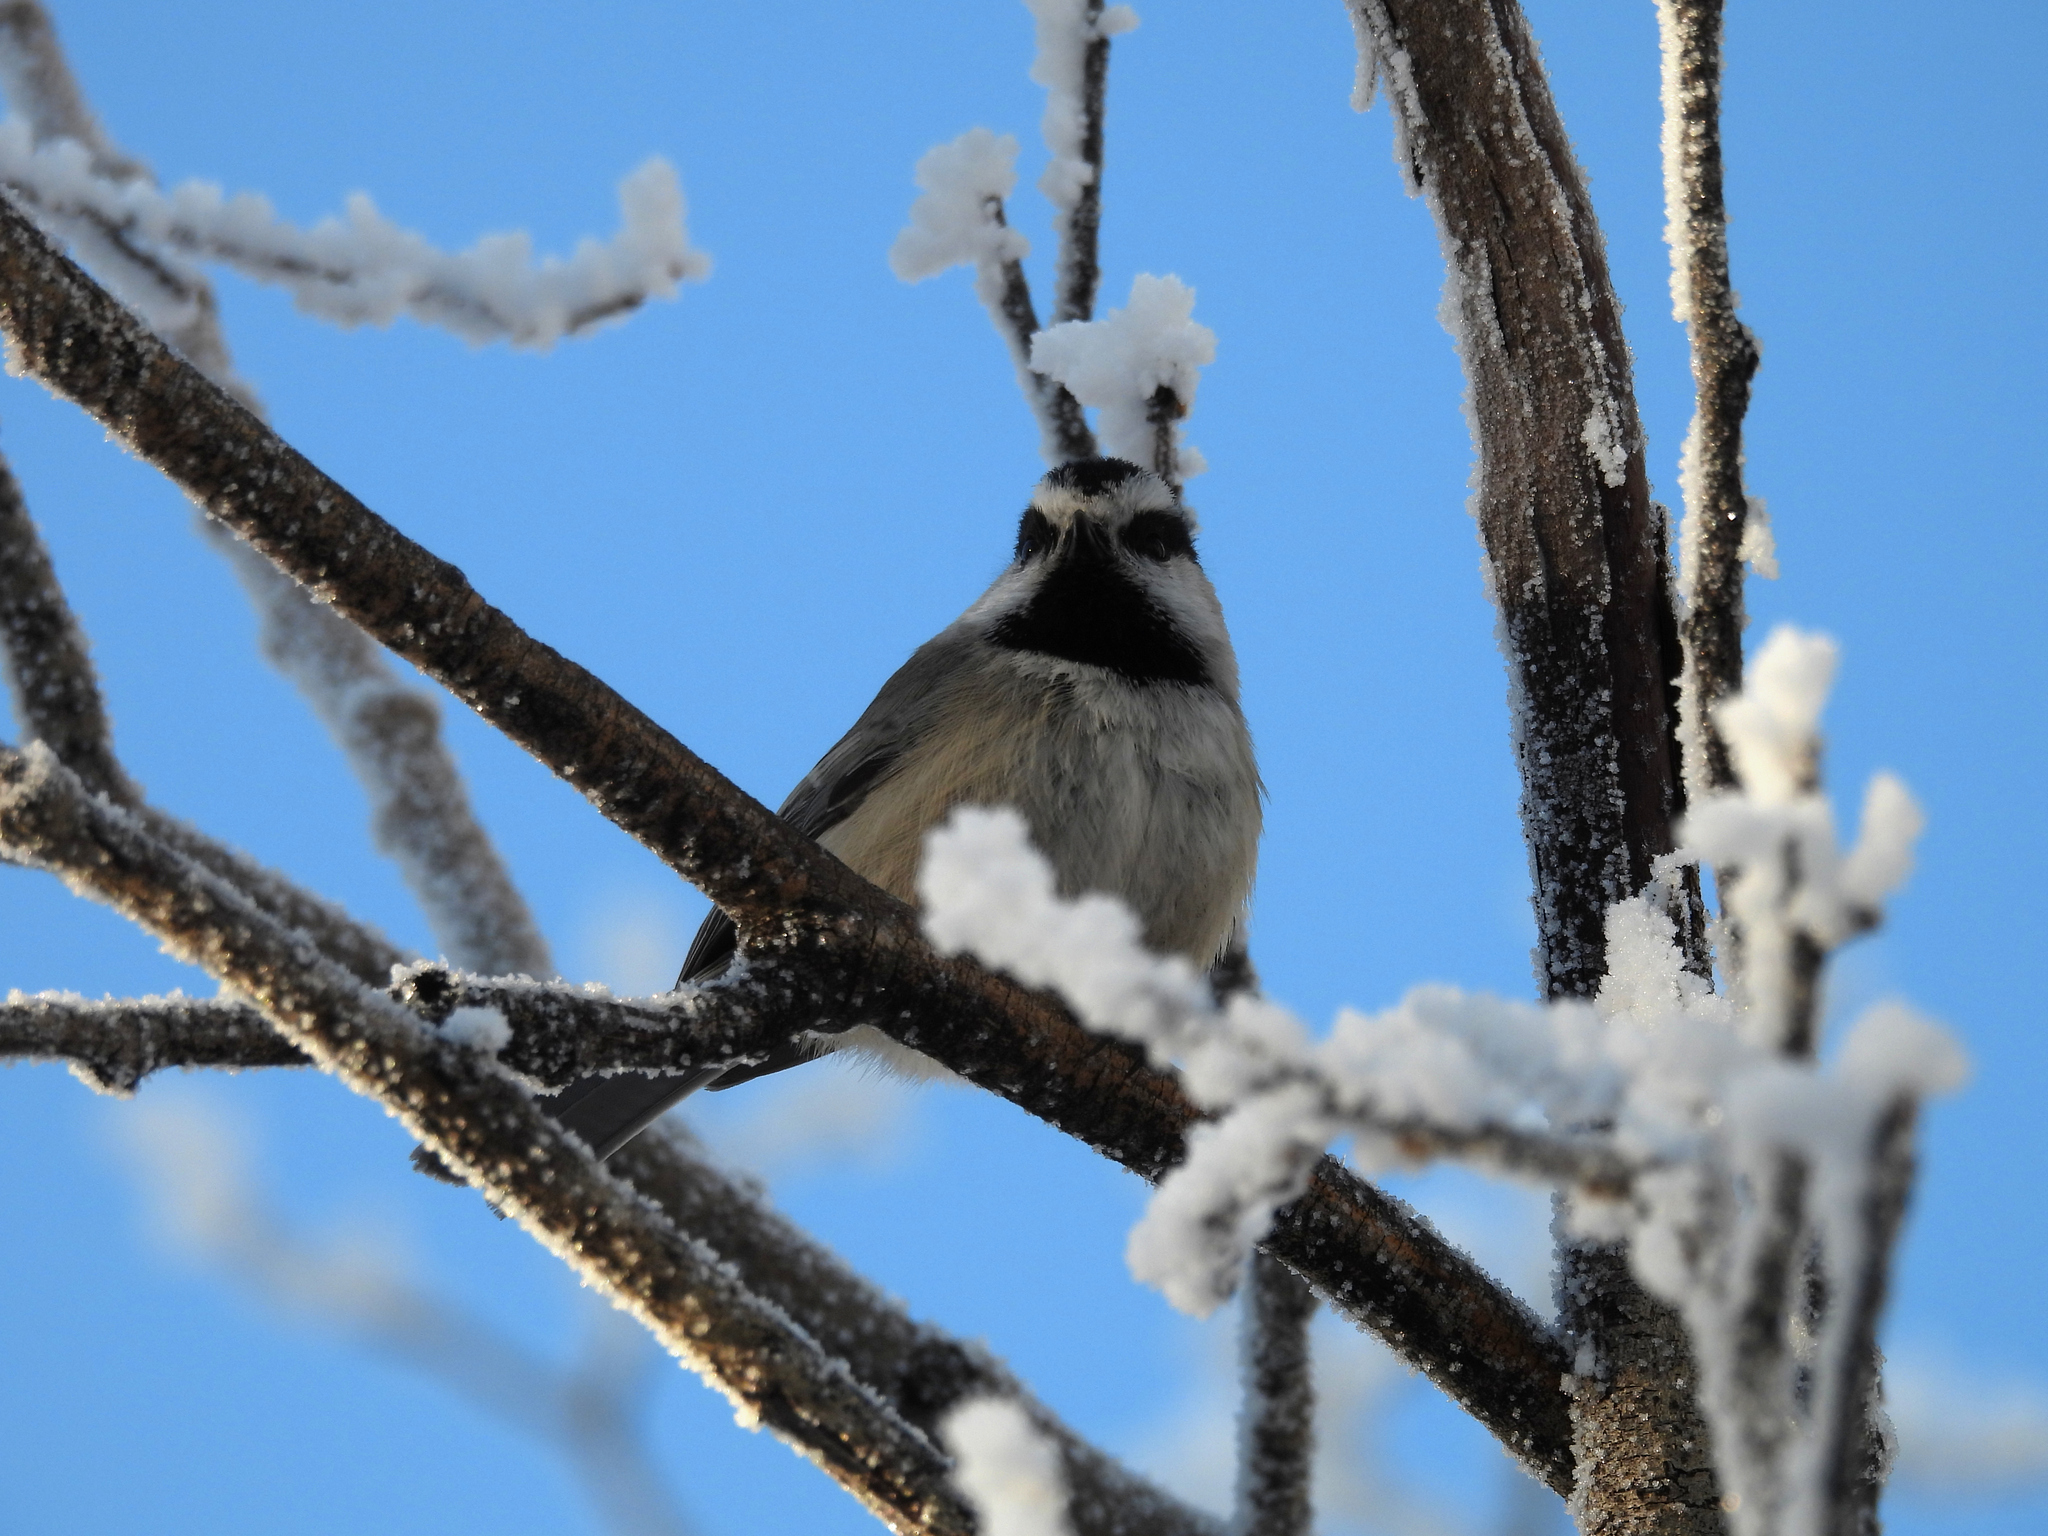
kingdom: Animalia
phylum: Chordata
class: Aves
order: Passeriformes
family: Paridae
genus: Poecile
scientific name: Poecile gambeli
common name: Mountain chickadee
